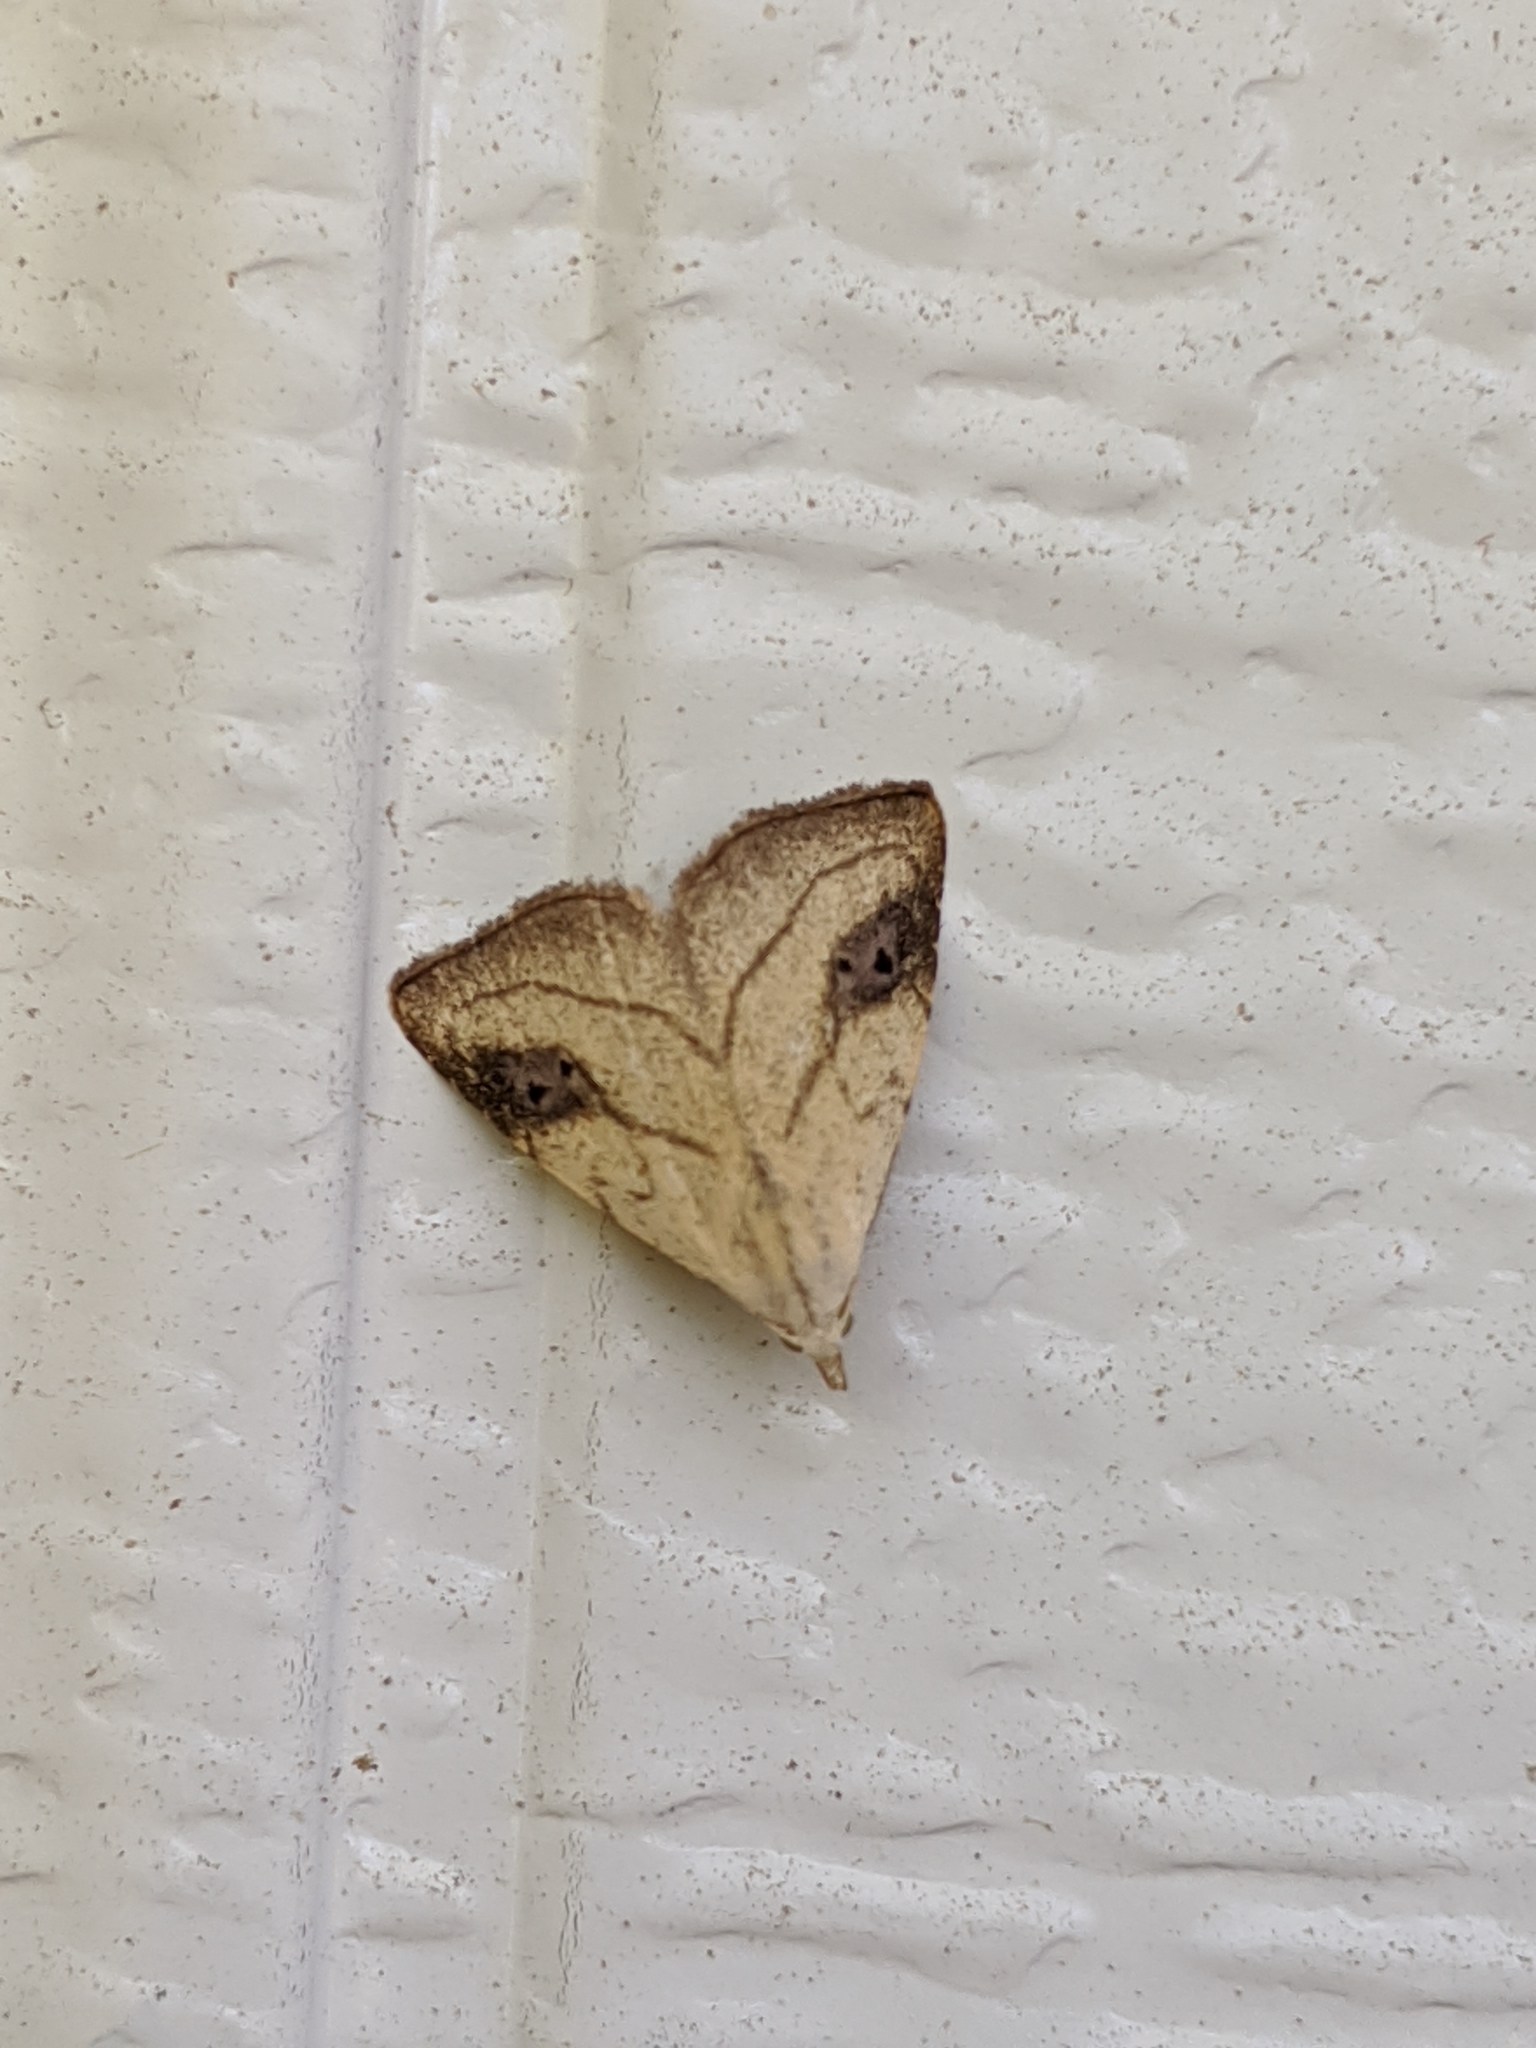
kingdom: Animalia
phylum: Arthropoda
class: Insecta
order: Lepidoptera
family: Erebidae
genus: Rivula
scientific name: Rivula propinqualis
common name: Spotted grass moth
